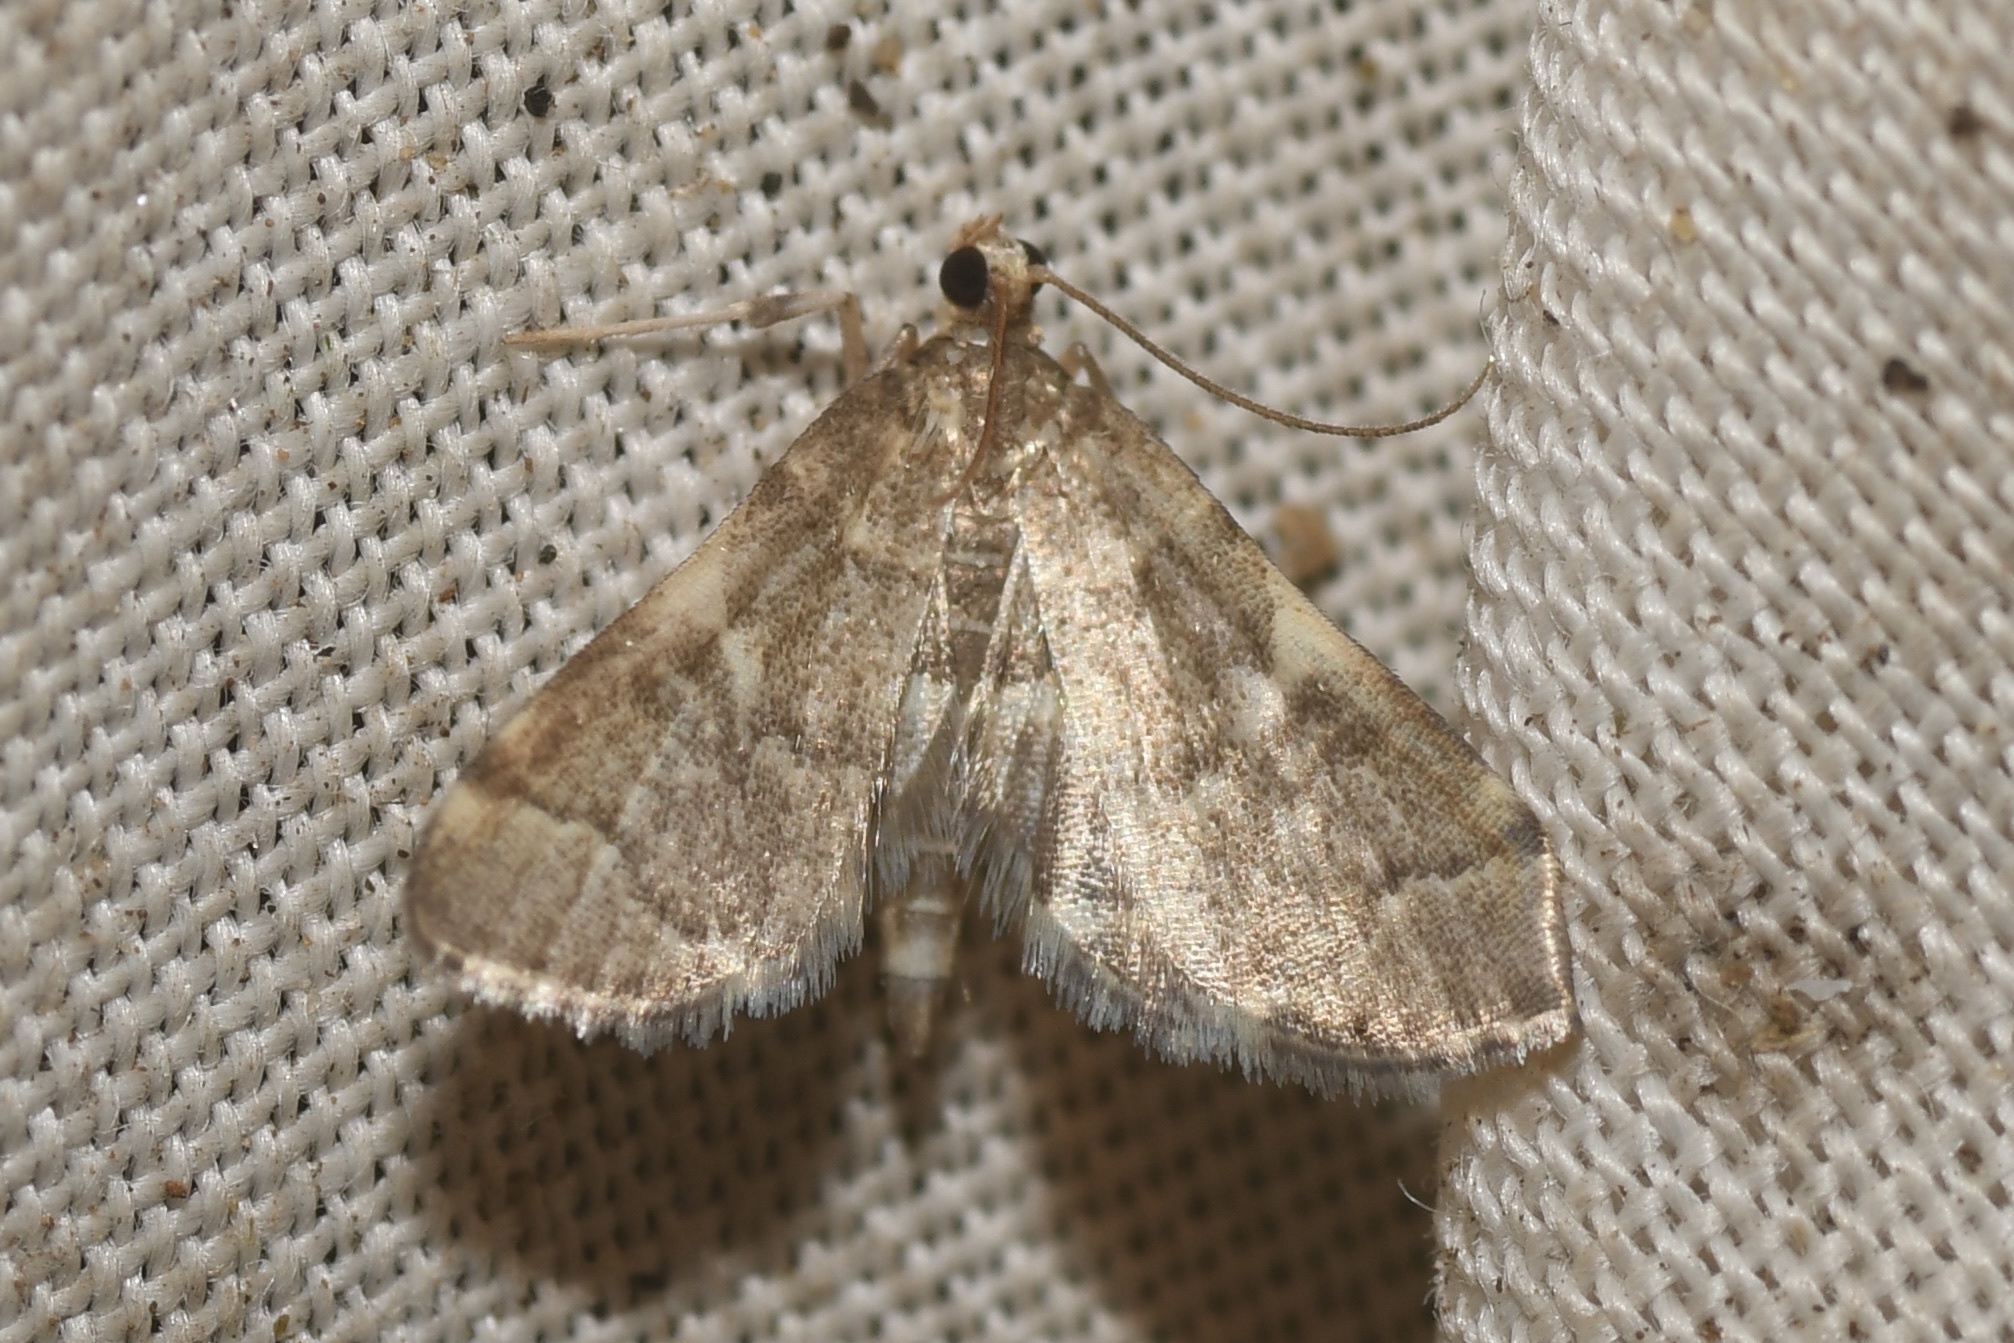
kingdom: Animalia
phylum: Arthropoda
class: Insecta
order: Lepidoptera
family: Crambidae
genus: Anageshna
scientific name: Anageshna primordialis
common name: Yellow-spotted webworm moth
